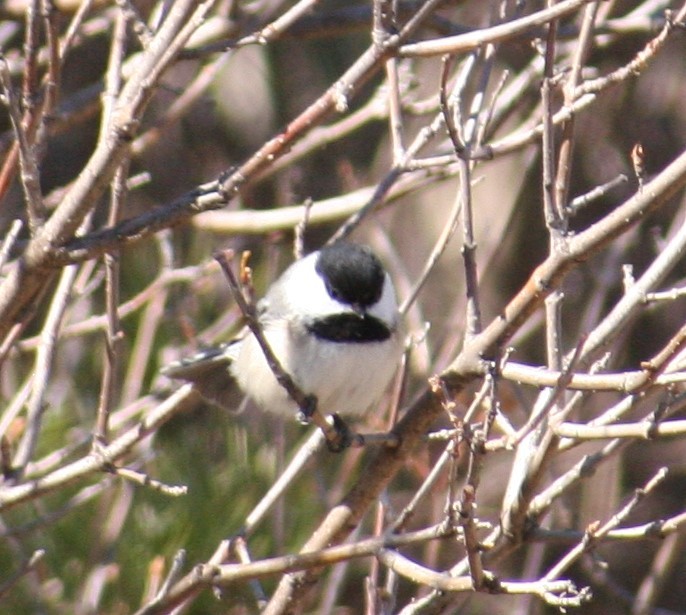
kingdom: Animalia
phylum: Chordata
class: Aves
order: Passeriformes
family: Paridae
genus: Poecile
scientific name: Poecile atricapillus
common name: Black-capped chickadee
